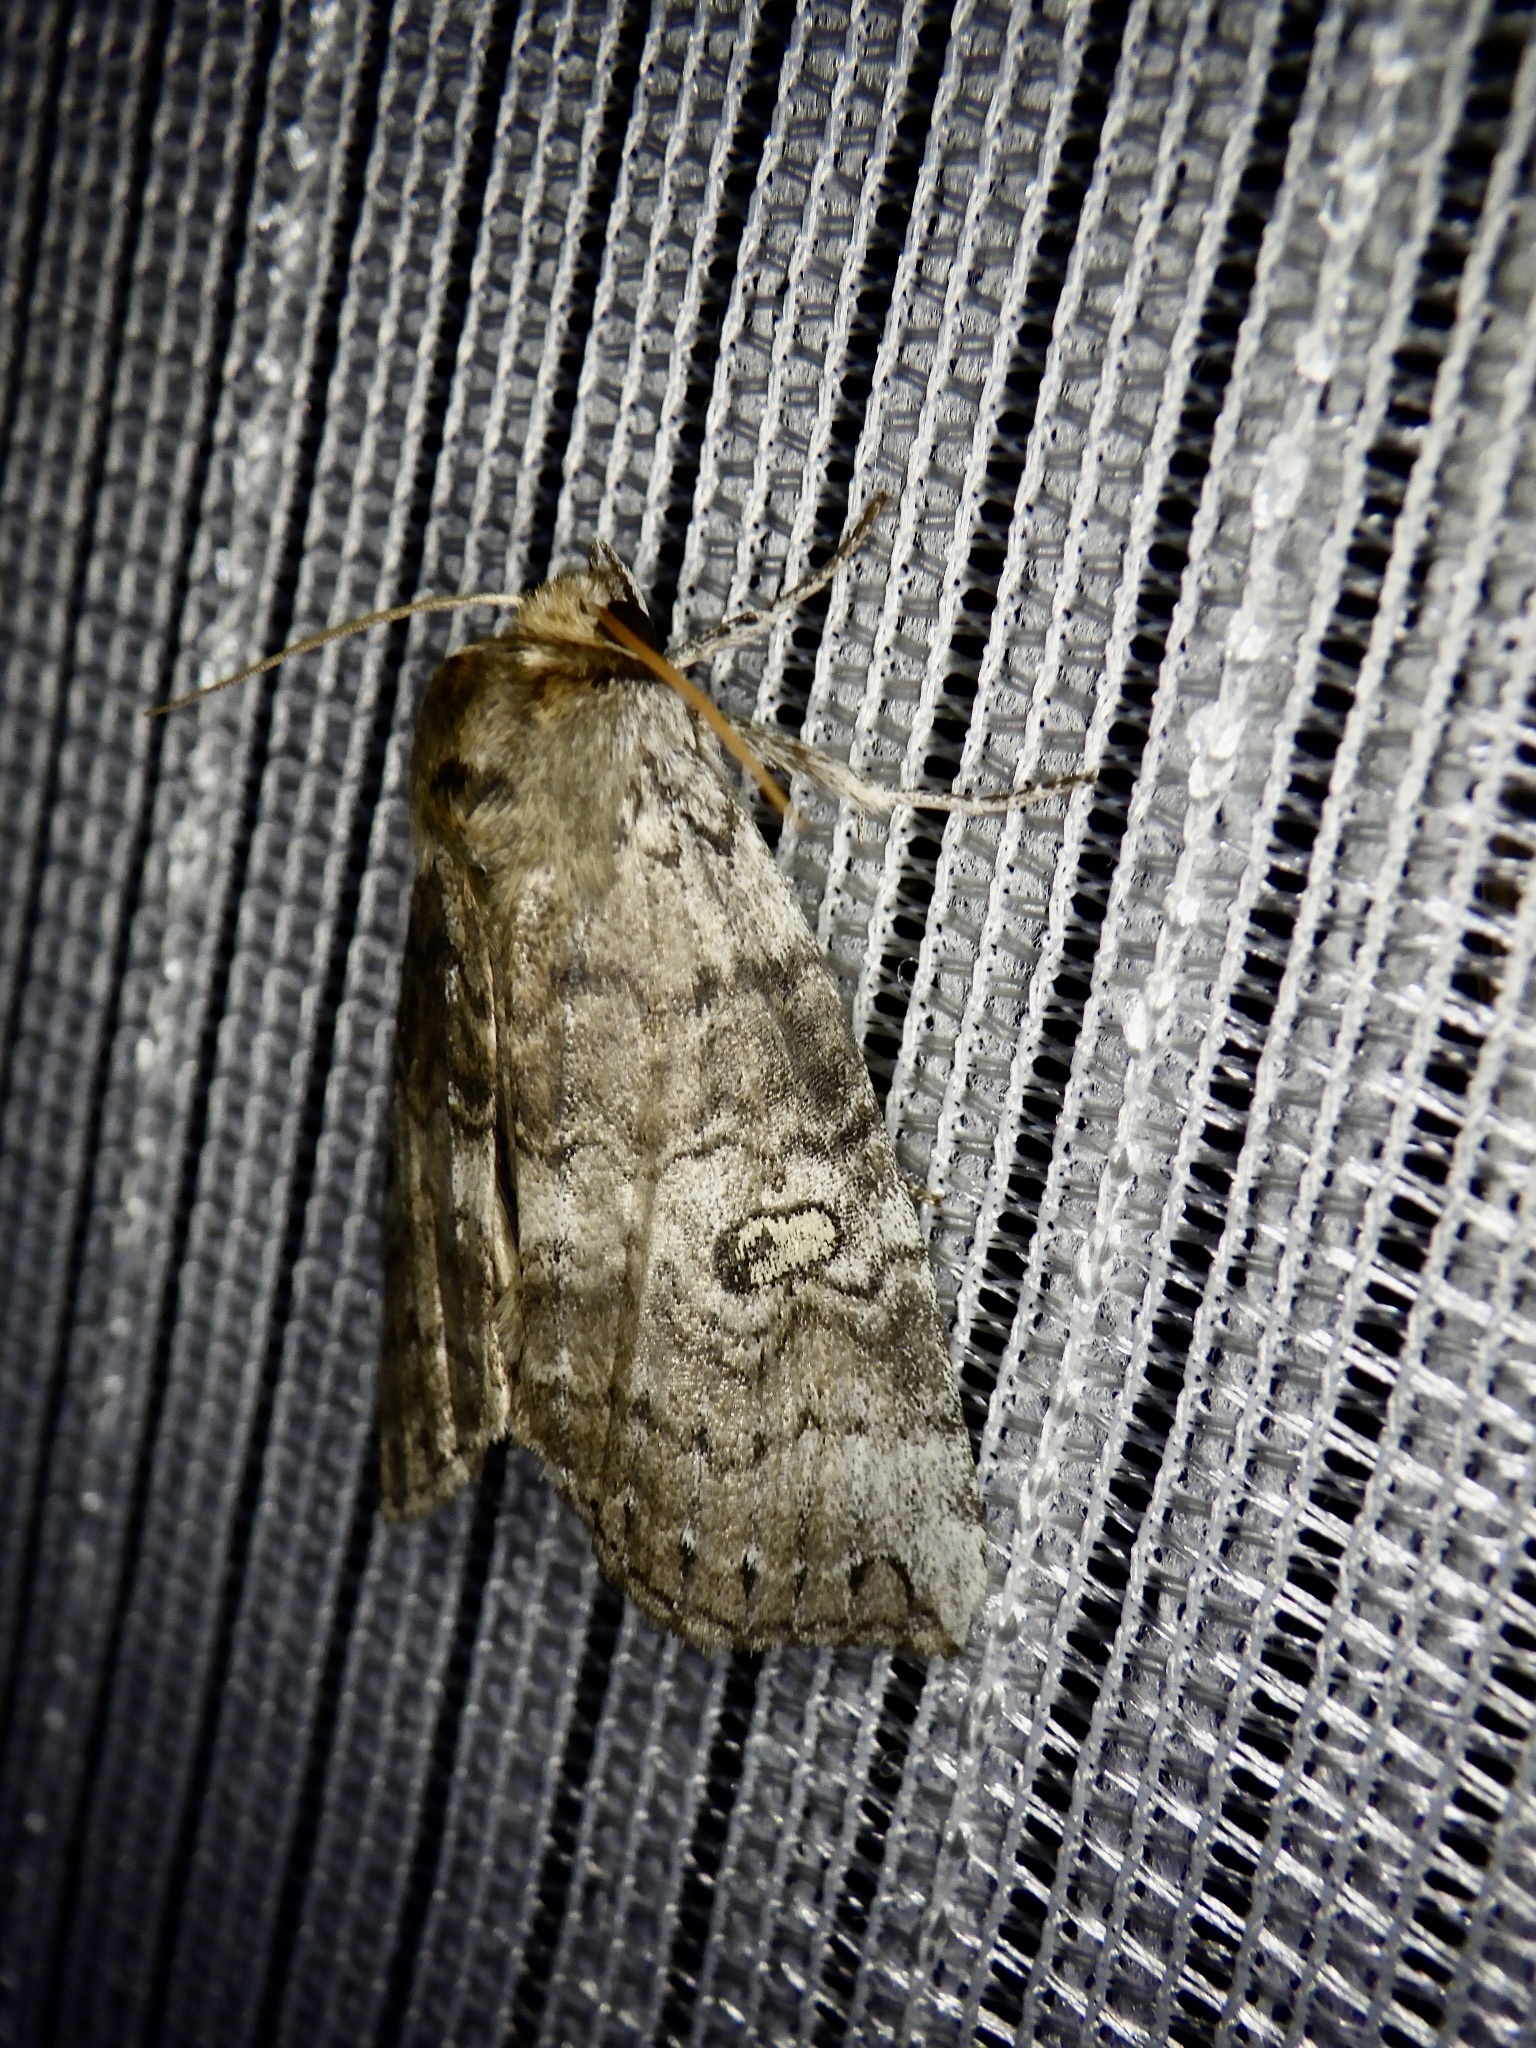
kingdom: Animalia
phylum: Arthropoda
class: Insecta
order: Lepidoptera
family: Drepanidae
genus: Tethea
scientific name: Tethea ampliata
